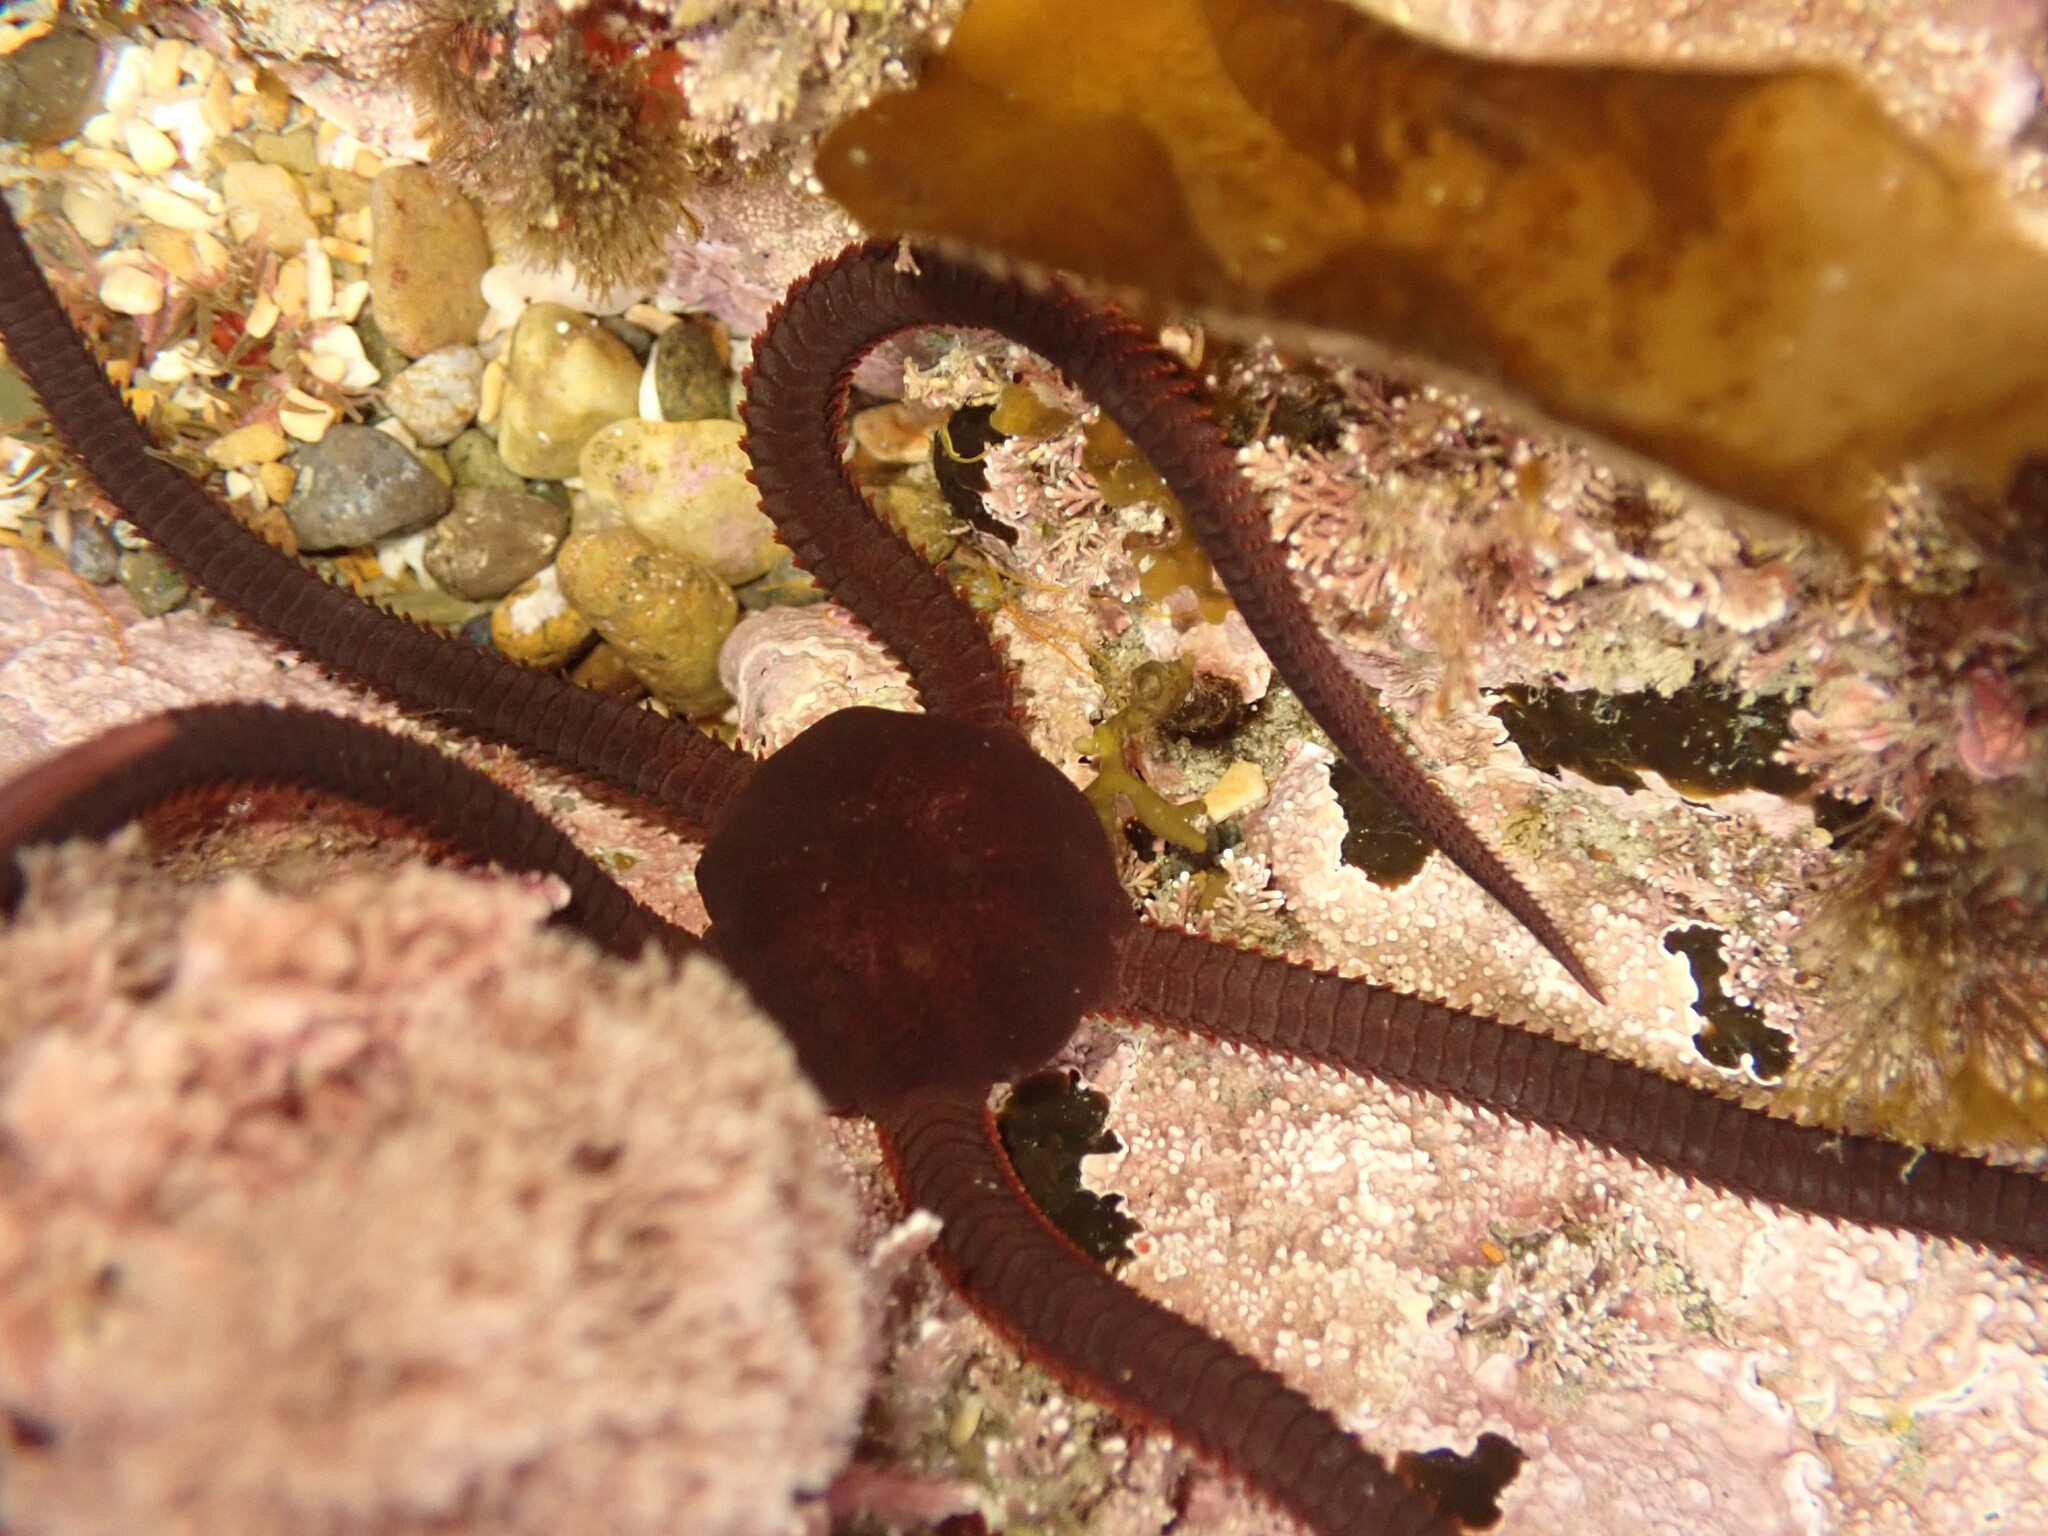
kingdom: Animalia
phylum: Echinodermata
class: Ophiuroidea
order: Ophiacanthida
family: Ophiodermatidae
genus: Ophiopsammus
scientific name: Ophiopsammus maculata
